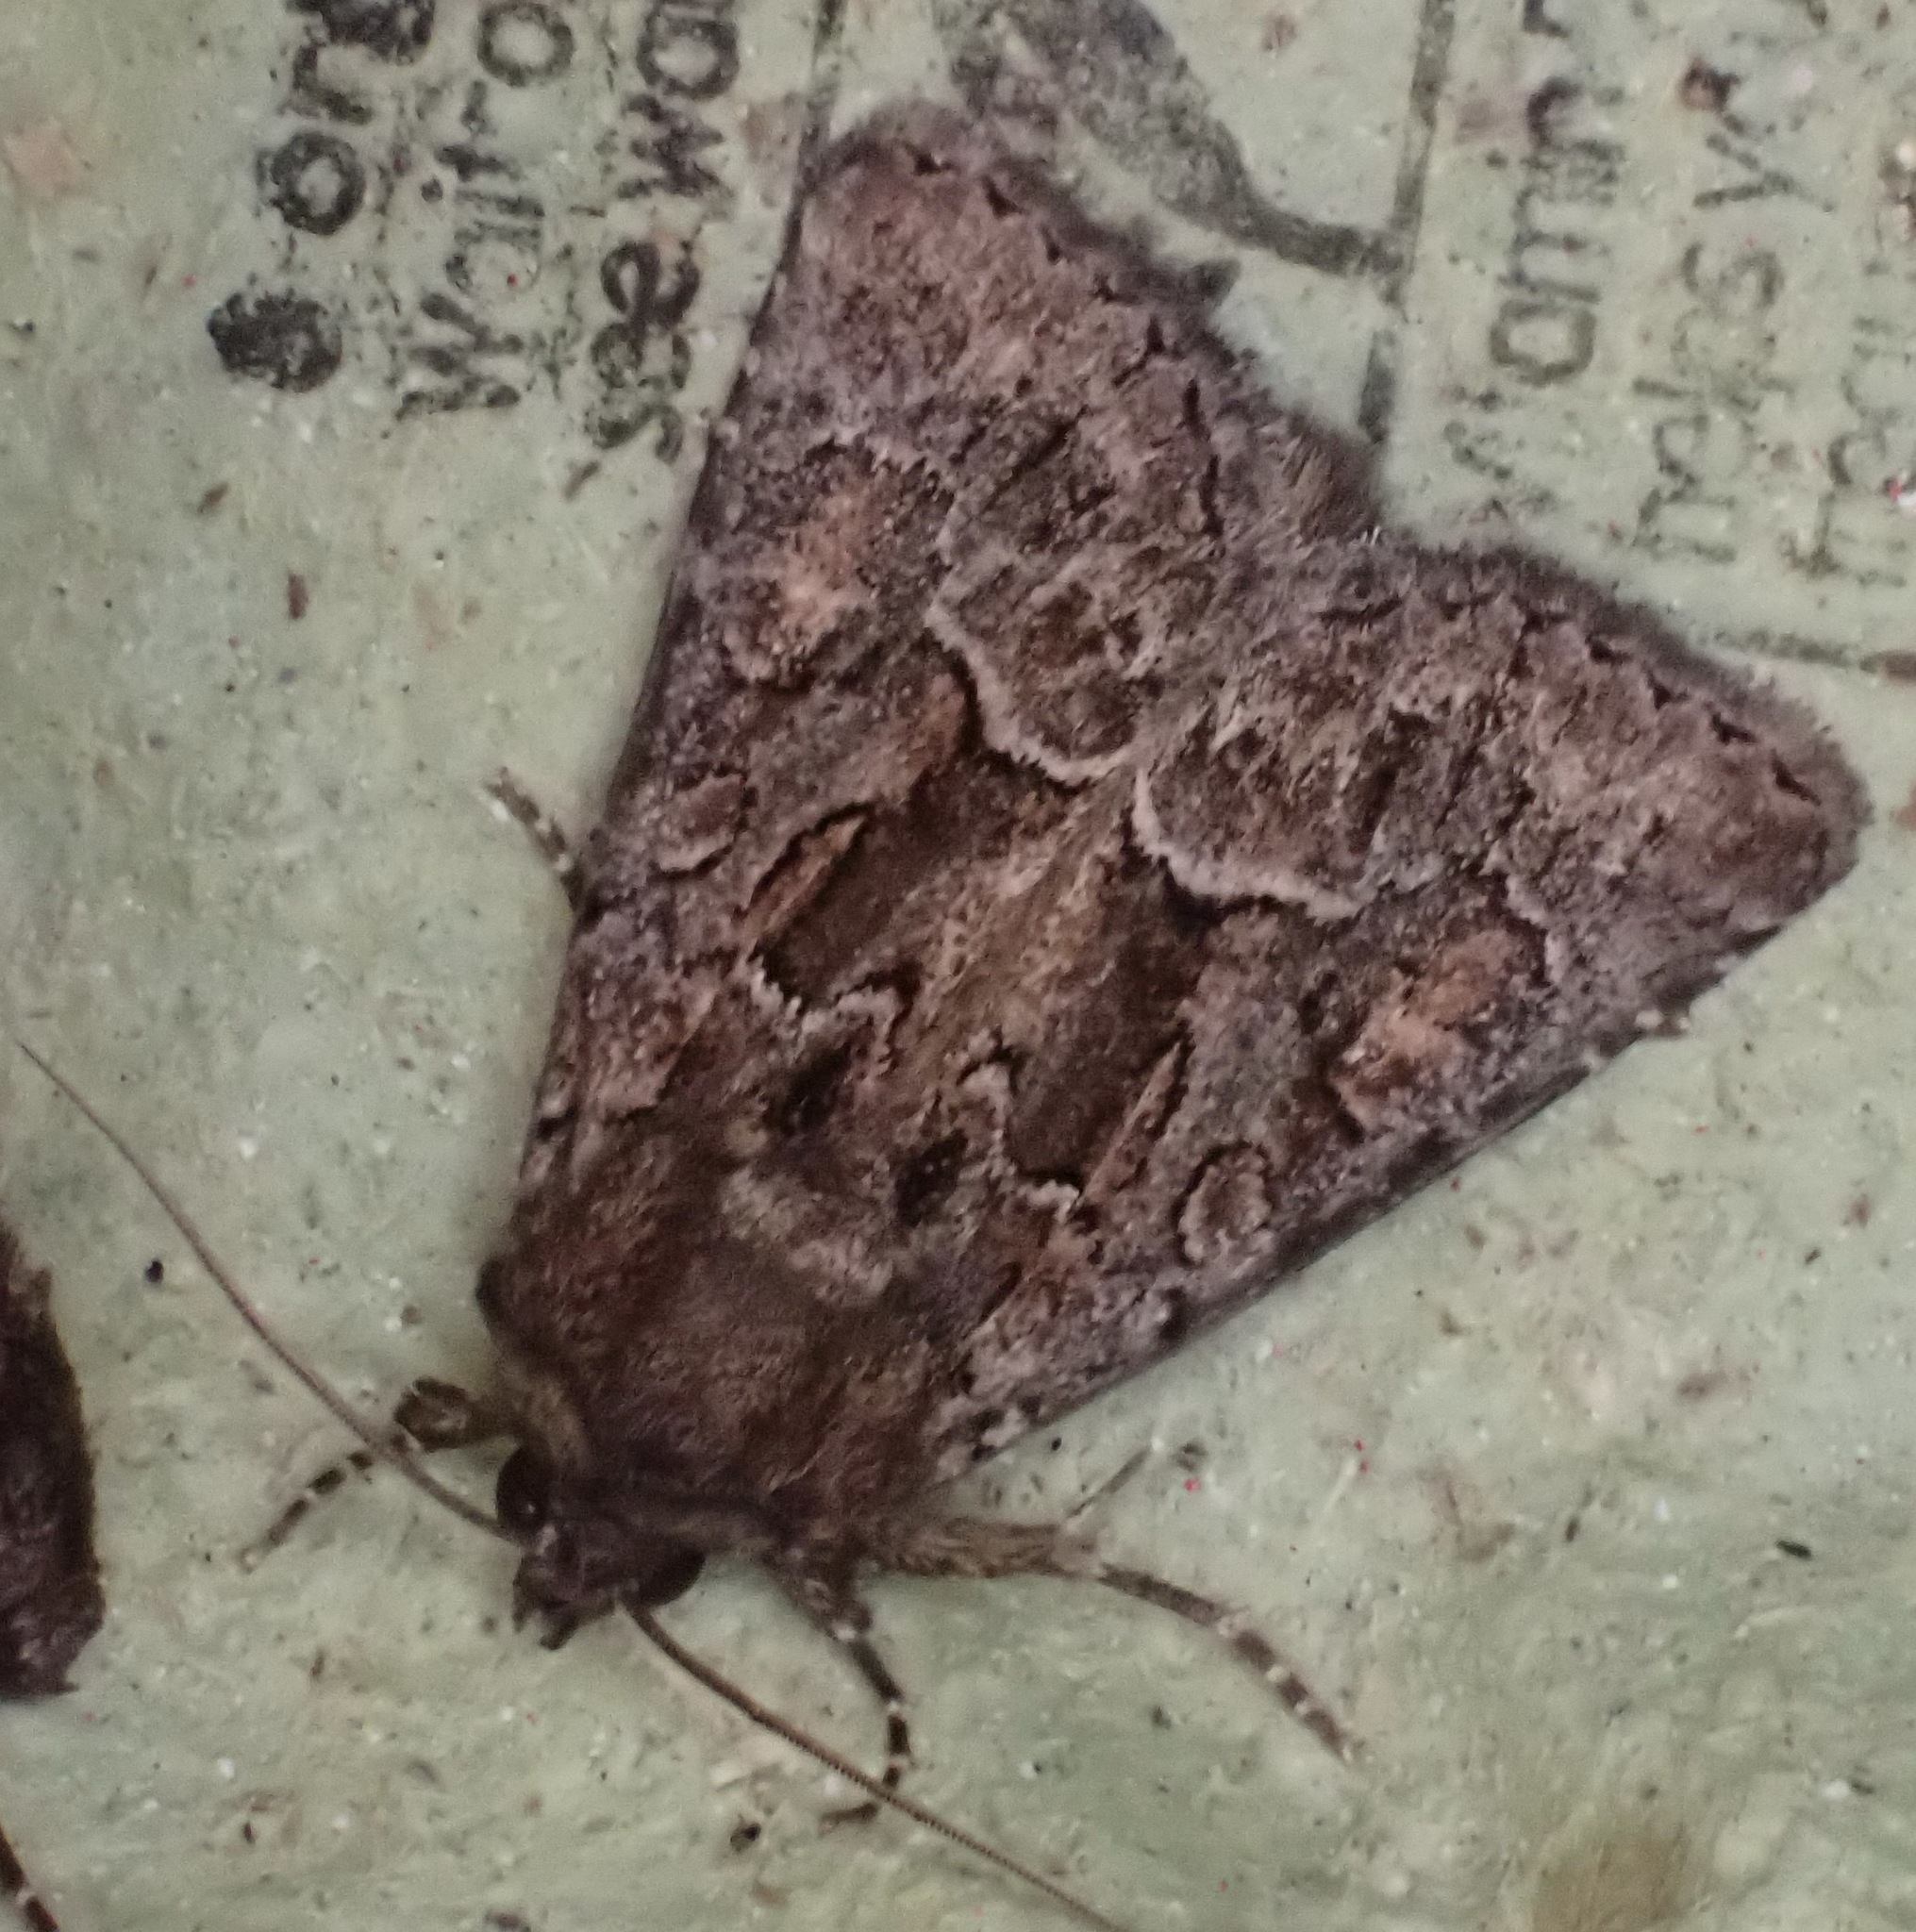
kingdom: Animalia
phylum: Arthropoda
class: Insecta
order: Lepidoptera
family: Noctuidae
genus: Thalpophila
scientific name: Thalpophila matura
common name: Straw underwing
